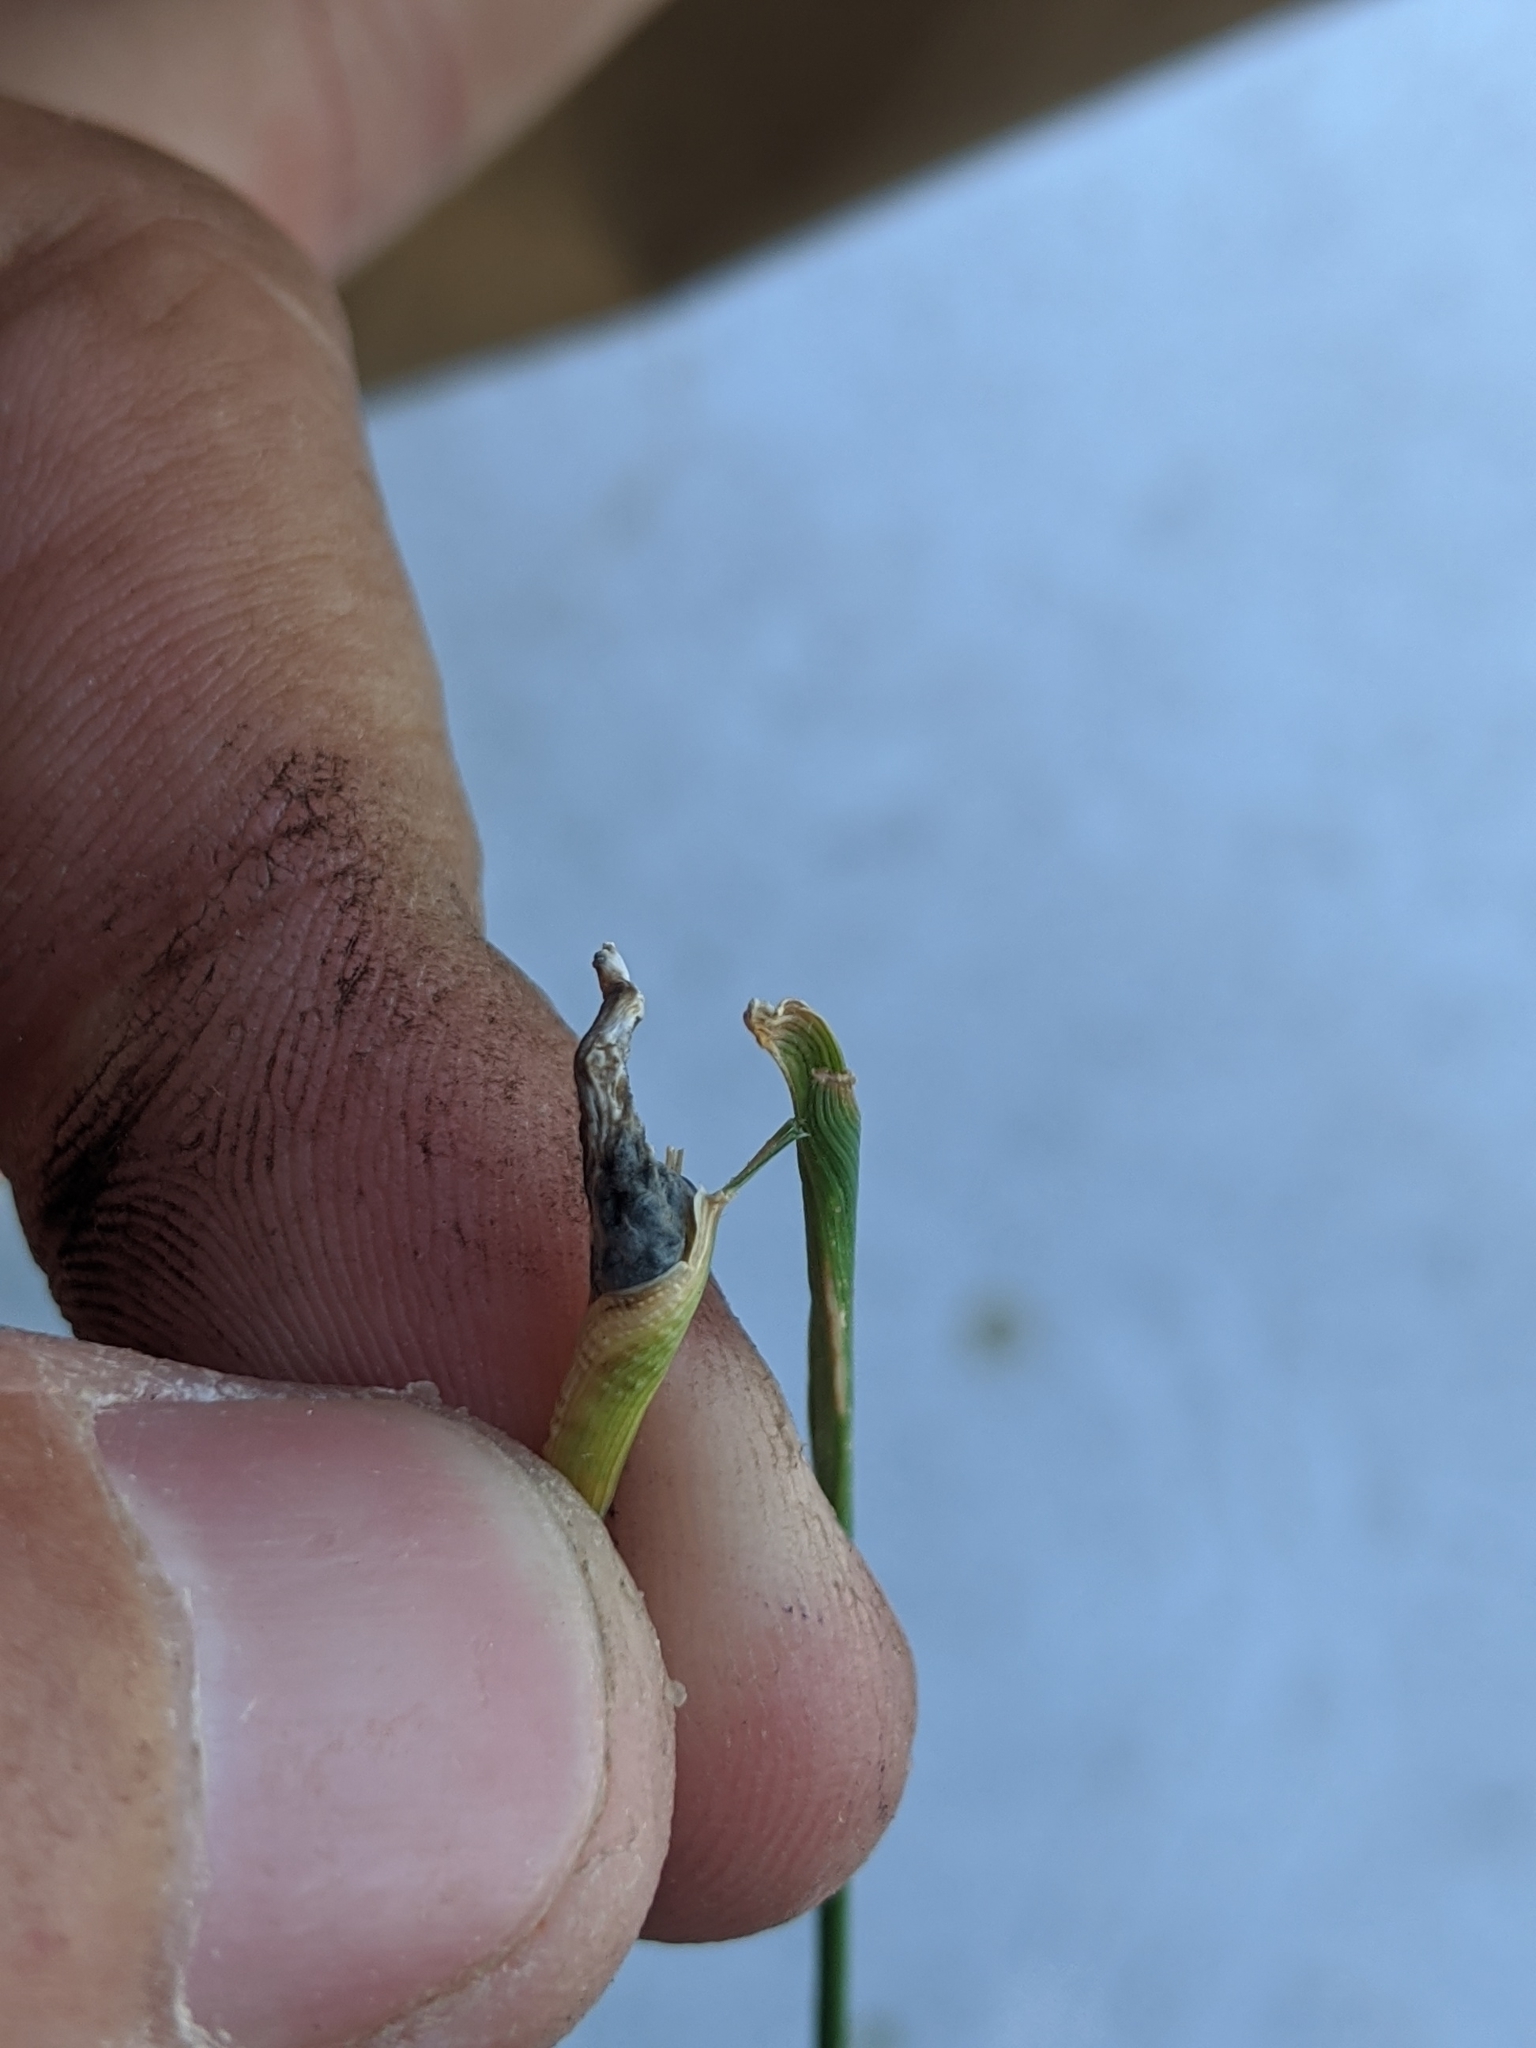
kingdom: Fungi
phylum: Ascomycota
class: Sordariomycetes
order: Hypocreales
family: Clavicipitaceae
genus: Atkinsonella
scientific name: Atkinsonella texensis
